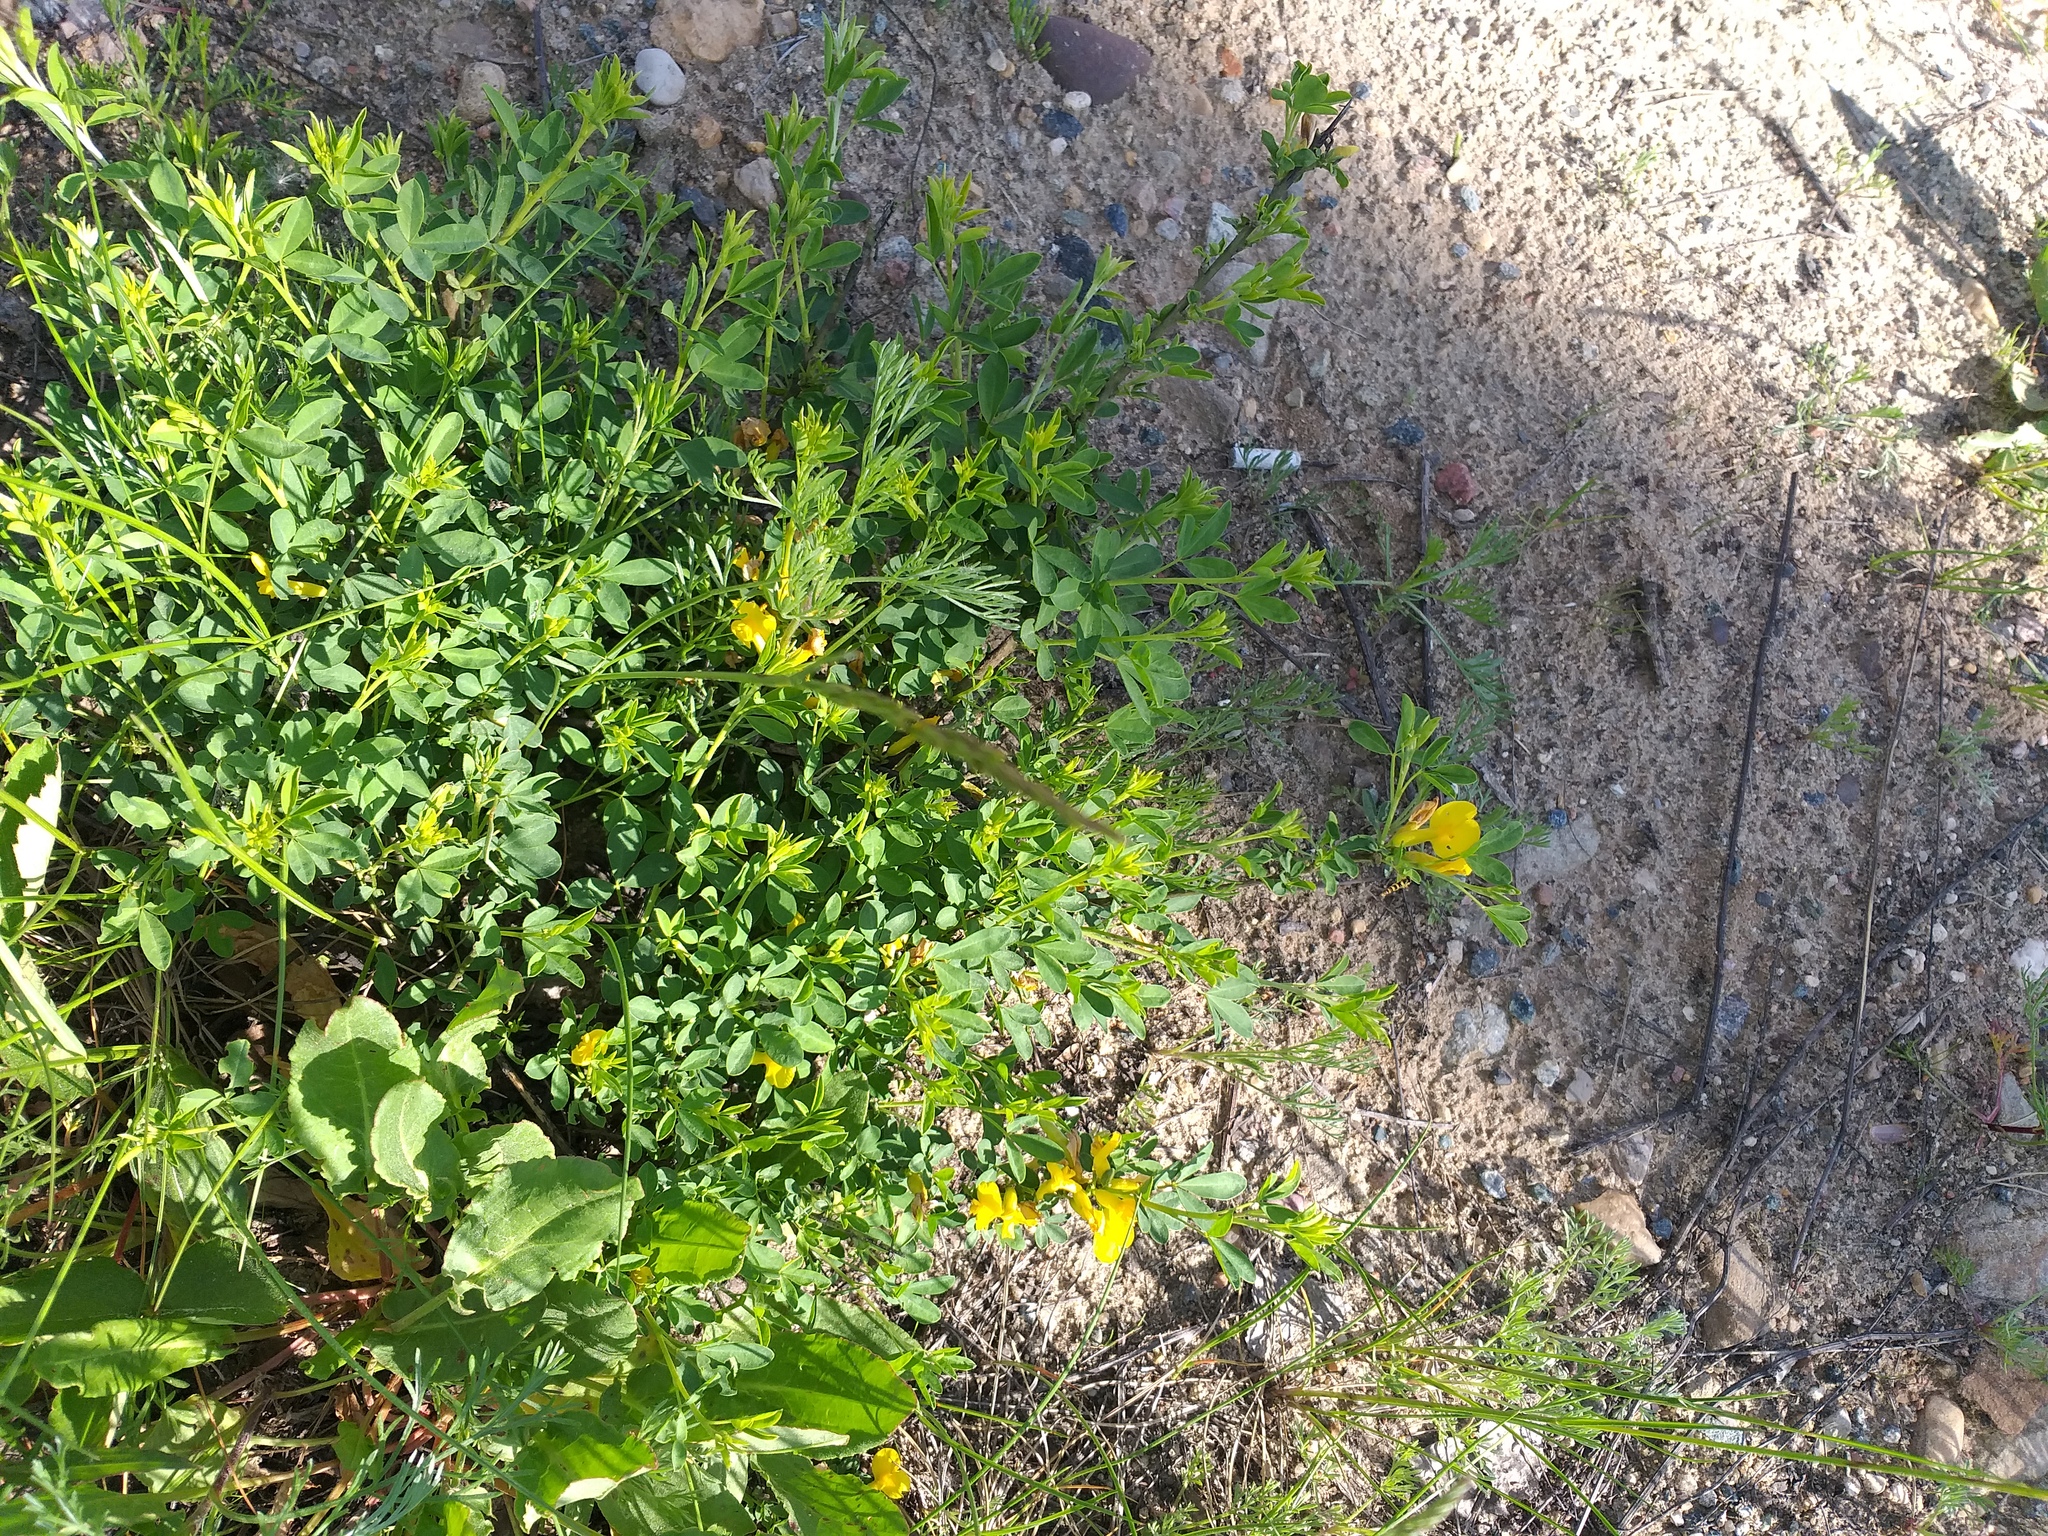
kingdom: Plantae
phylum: Tracheophyta
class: Magnoliopsida
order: Fabales
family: Fabaceae
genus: Chamaecytisus
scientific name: Chamaecytisus ruthenicus
